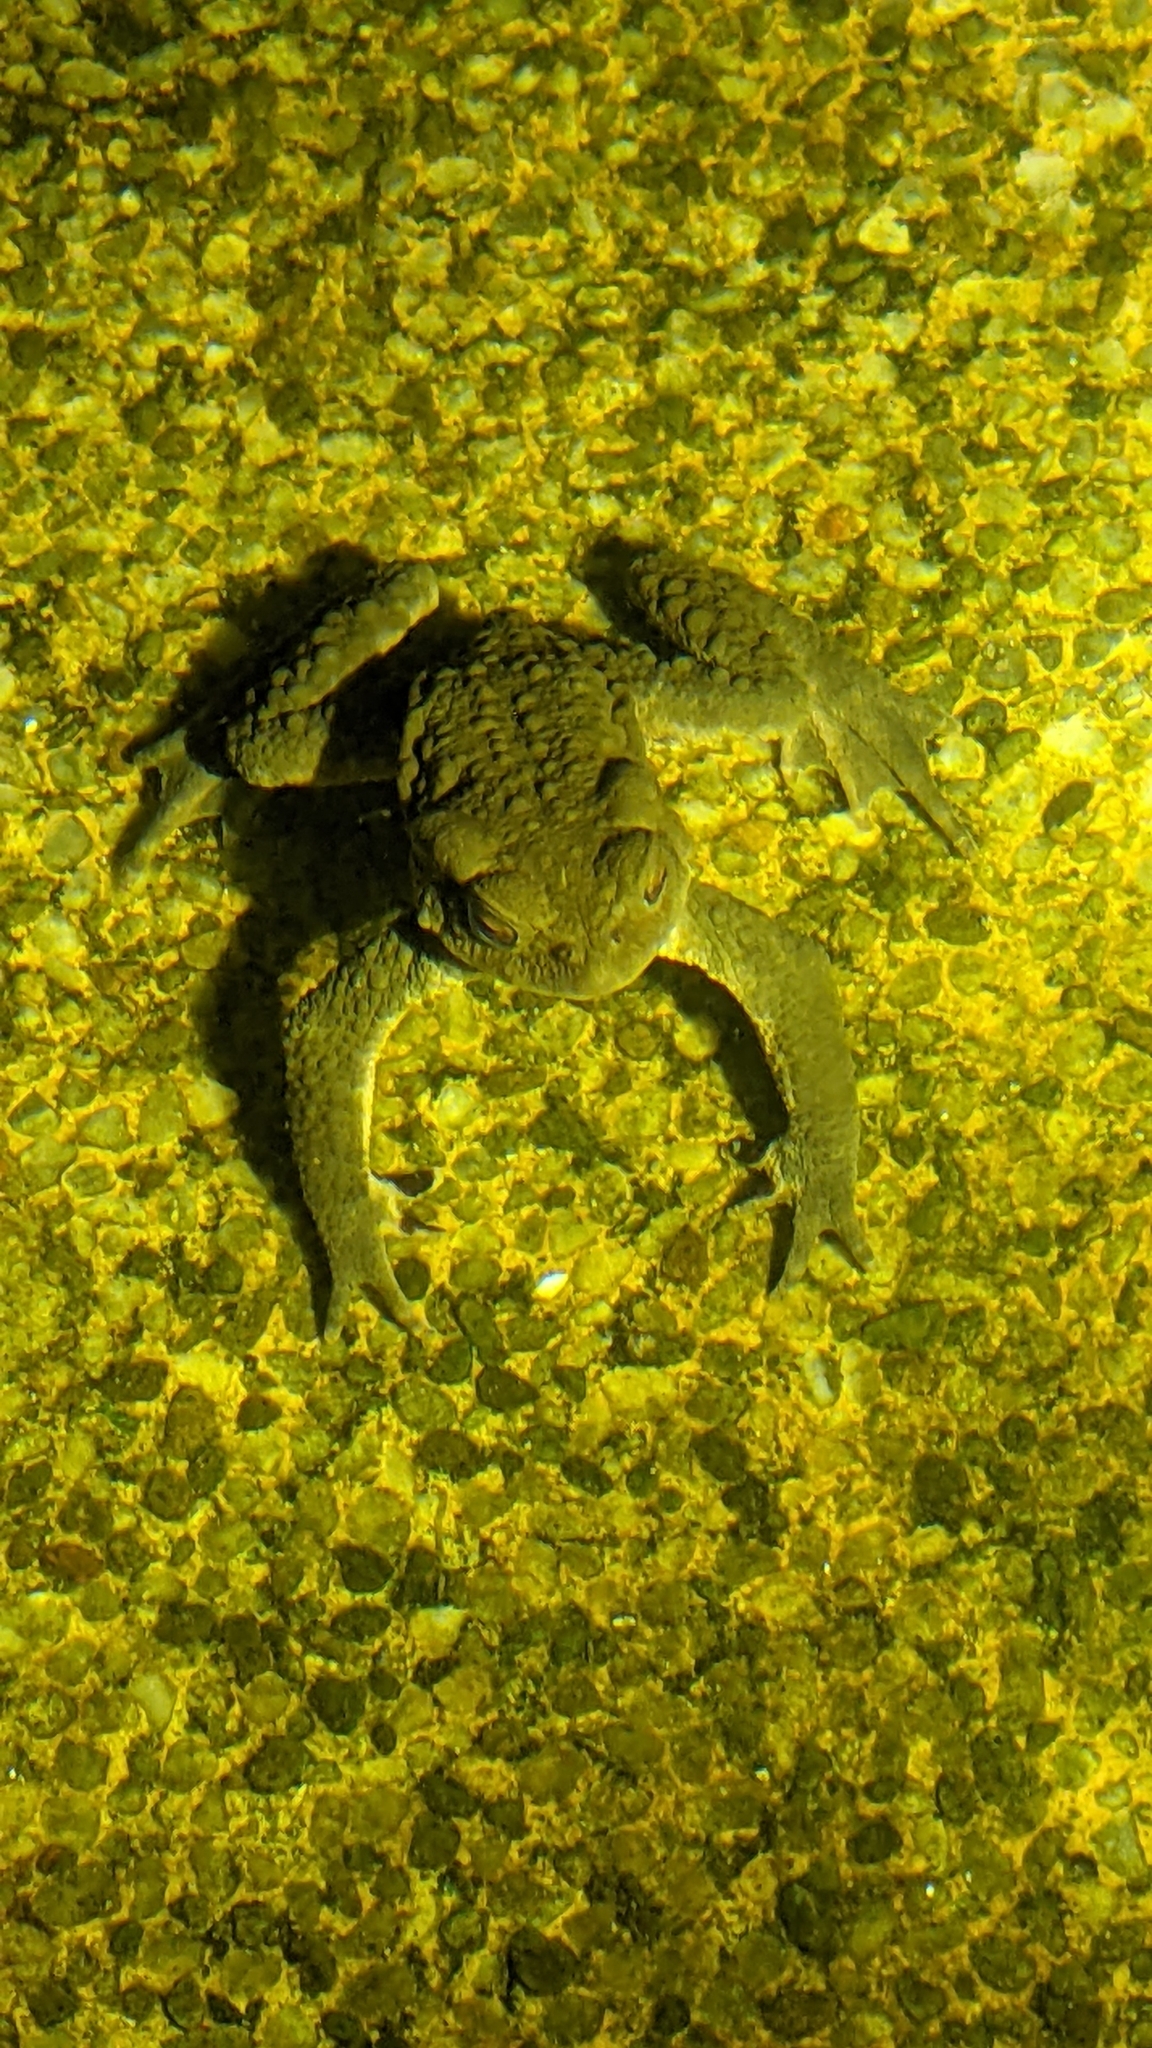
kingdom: Animalia
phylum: Chordata
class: Amphibia
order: Anura
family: Bufonidae
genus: Bufo
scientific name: Bufo bankorensis
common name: Bankor toad
